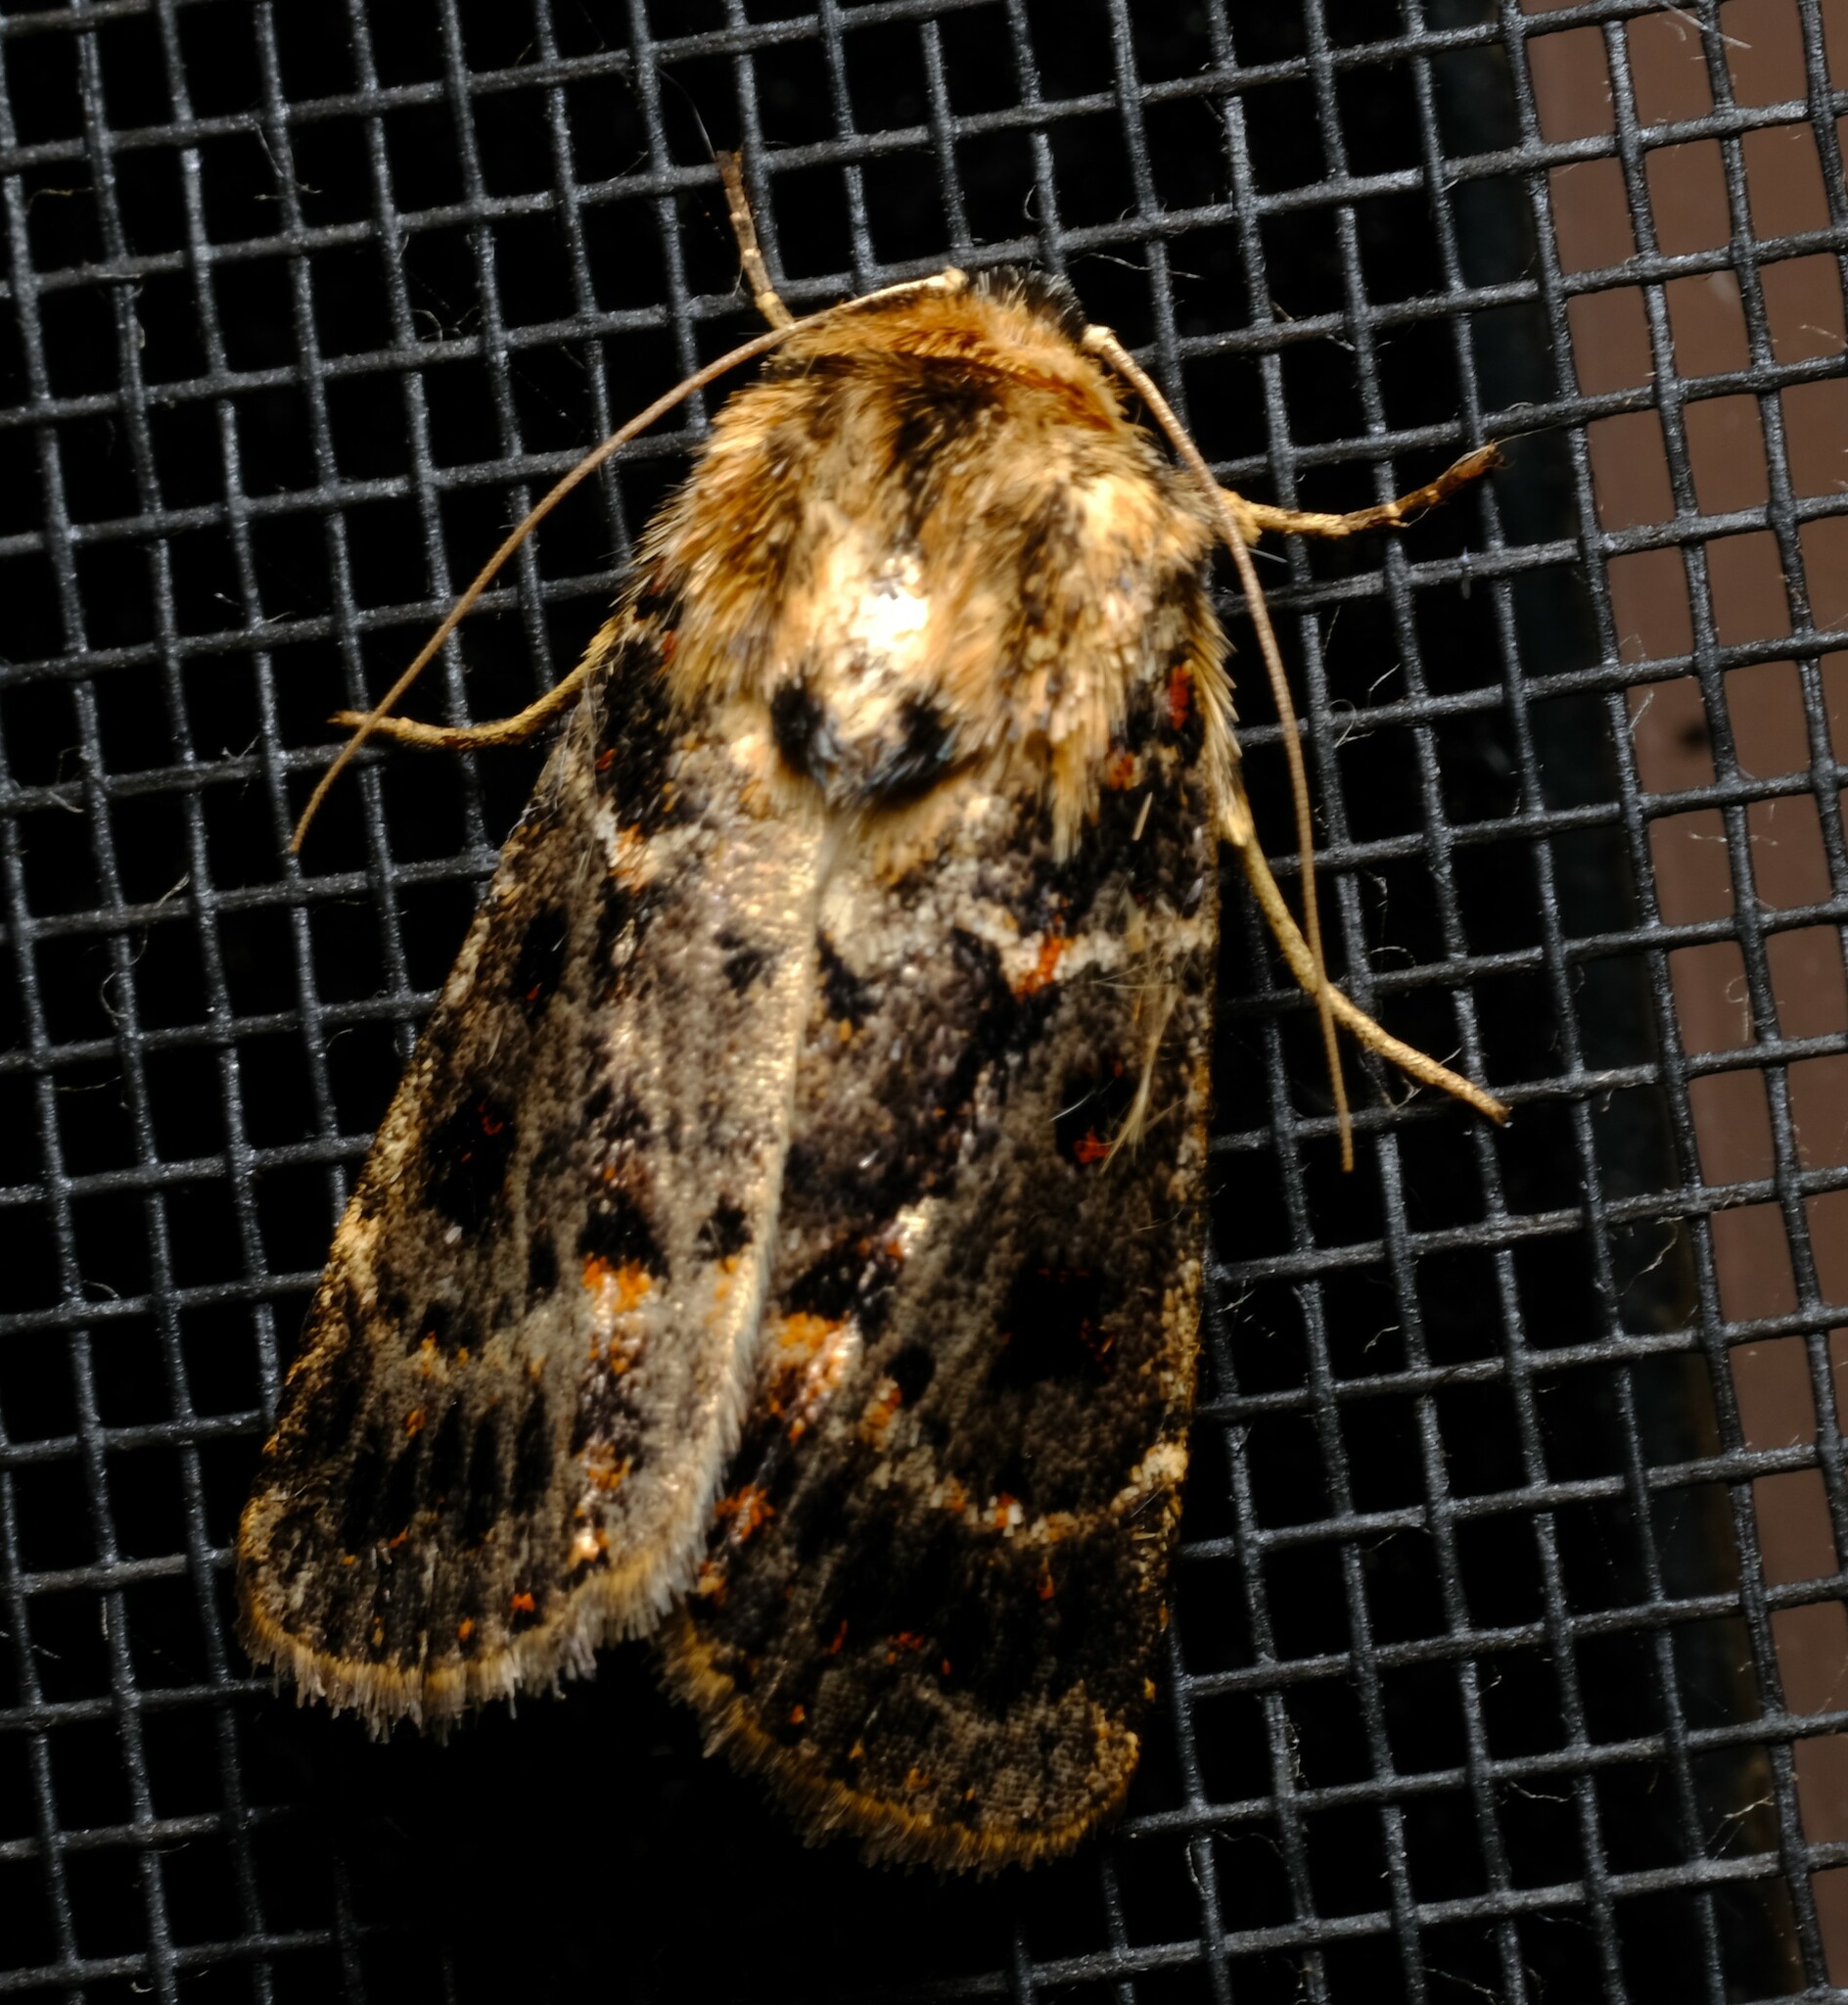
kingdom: Animalia
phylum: Arthropoda
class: Insecta
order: Lepidoptera
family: Noctuidae
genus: Proteuxoa
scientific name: Proteuxoa sanguinipuncta
